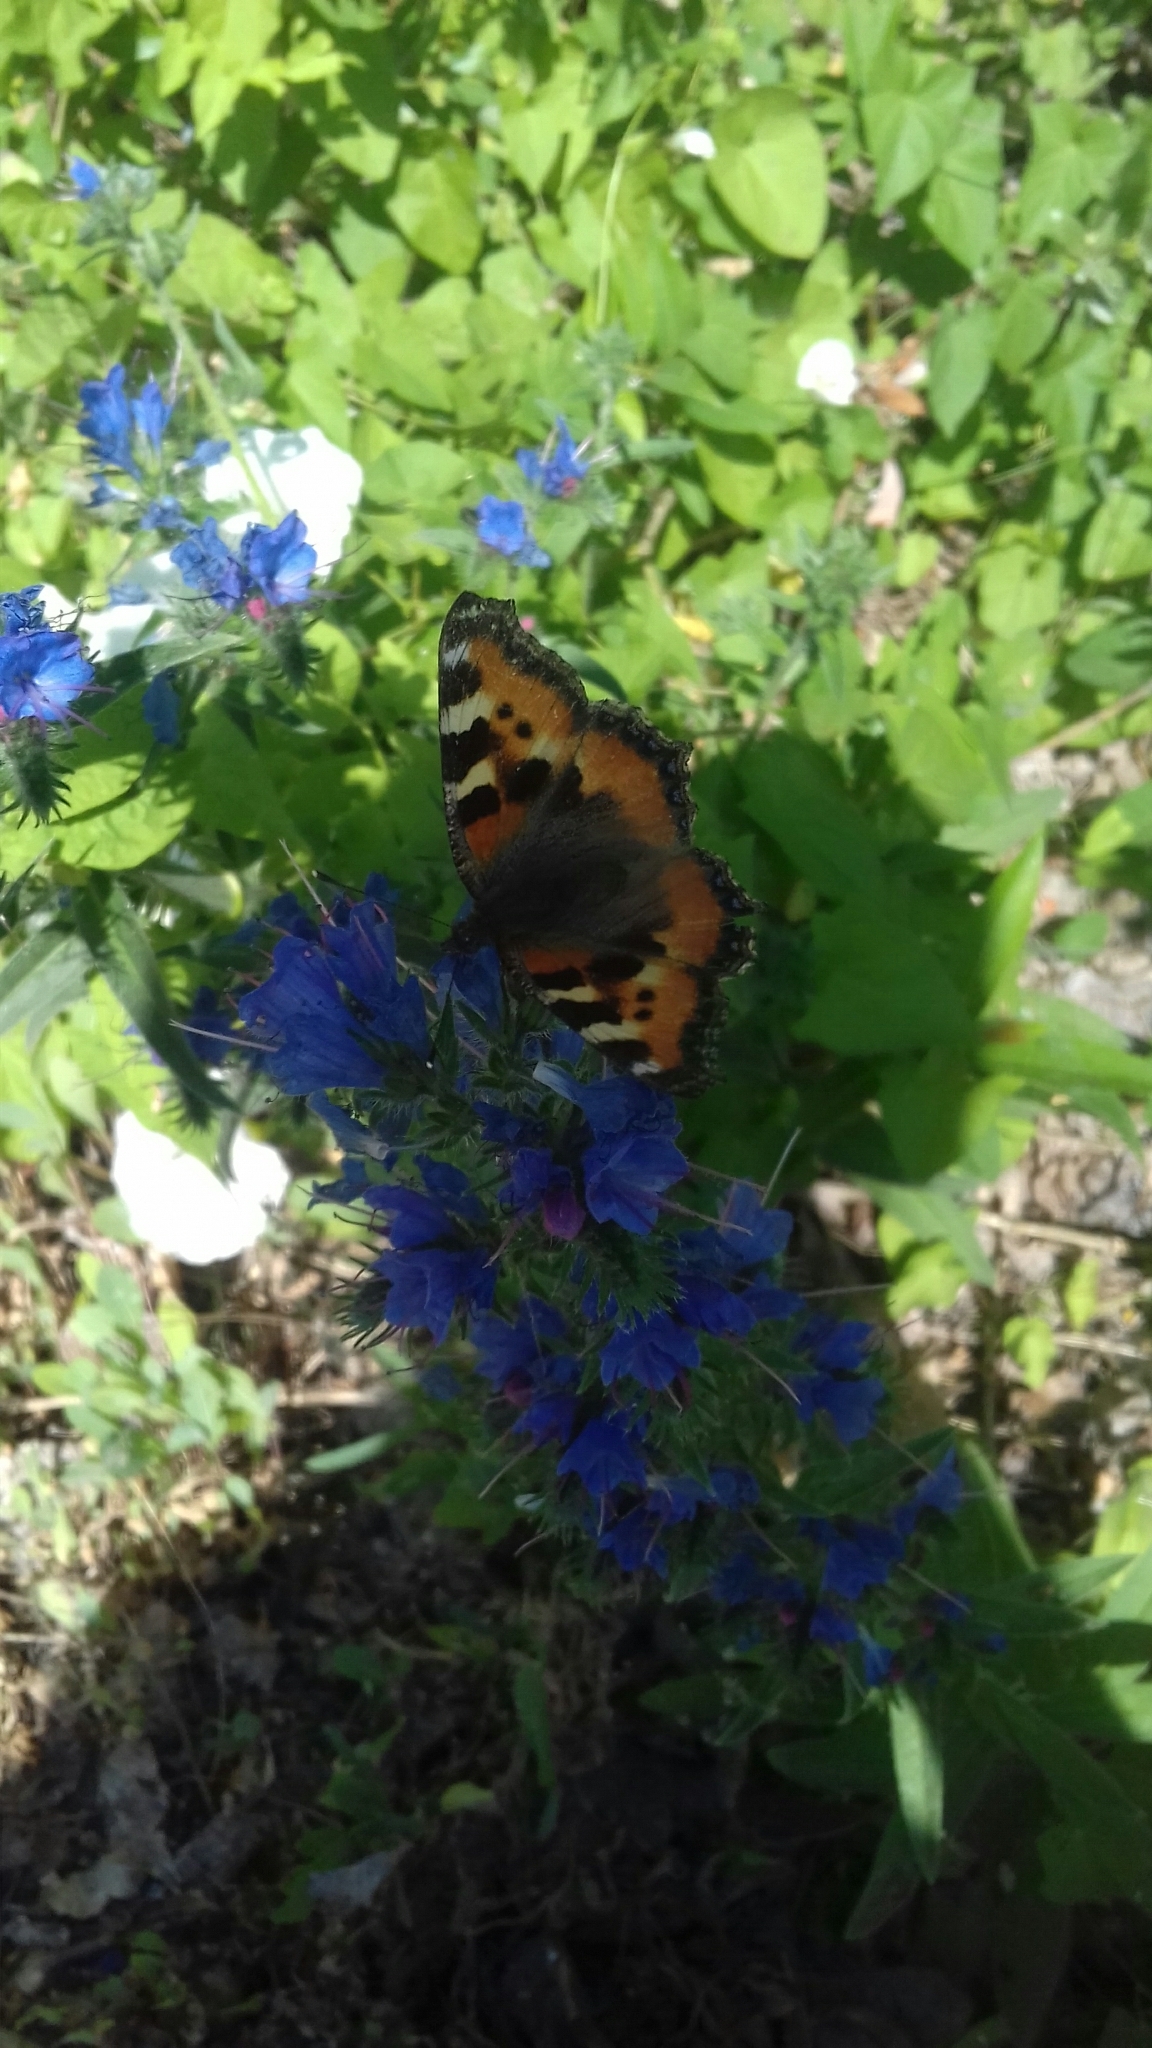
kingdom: Animalia
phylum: Arthropoda
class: Insecta
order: Lepidoptera
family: Nymphalidae
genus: Aglais
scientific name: Aglais urticae
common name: Small tortoiseshell
